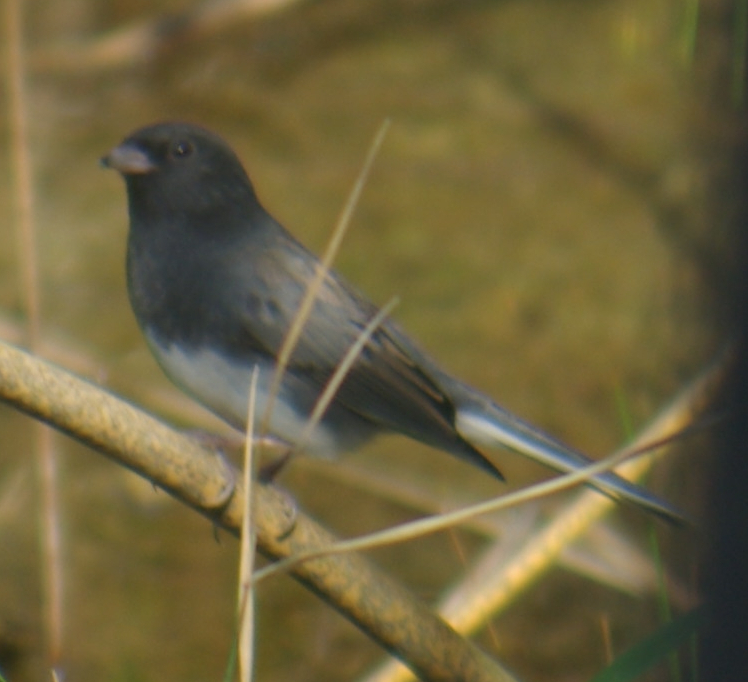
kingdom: Animalia
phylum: Chordata
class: Aves
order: Passeriformes
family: Passerellidae
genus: Junco
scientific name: Junco hyemalis
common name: Dark-eyed junco
